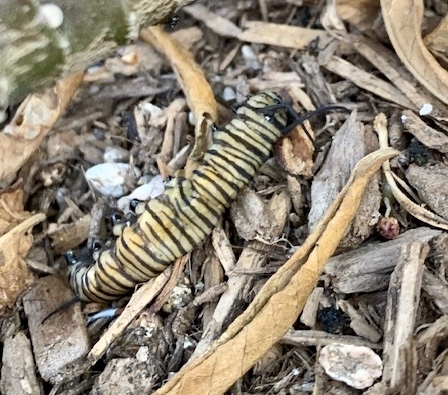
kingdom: Animalia
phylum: Arthropoda
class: Insecta
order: Lepidoptera
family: Nymphalidae
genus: Danaus
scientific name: Danaus plexippus
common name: Monarch
